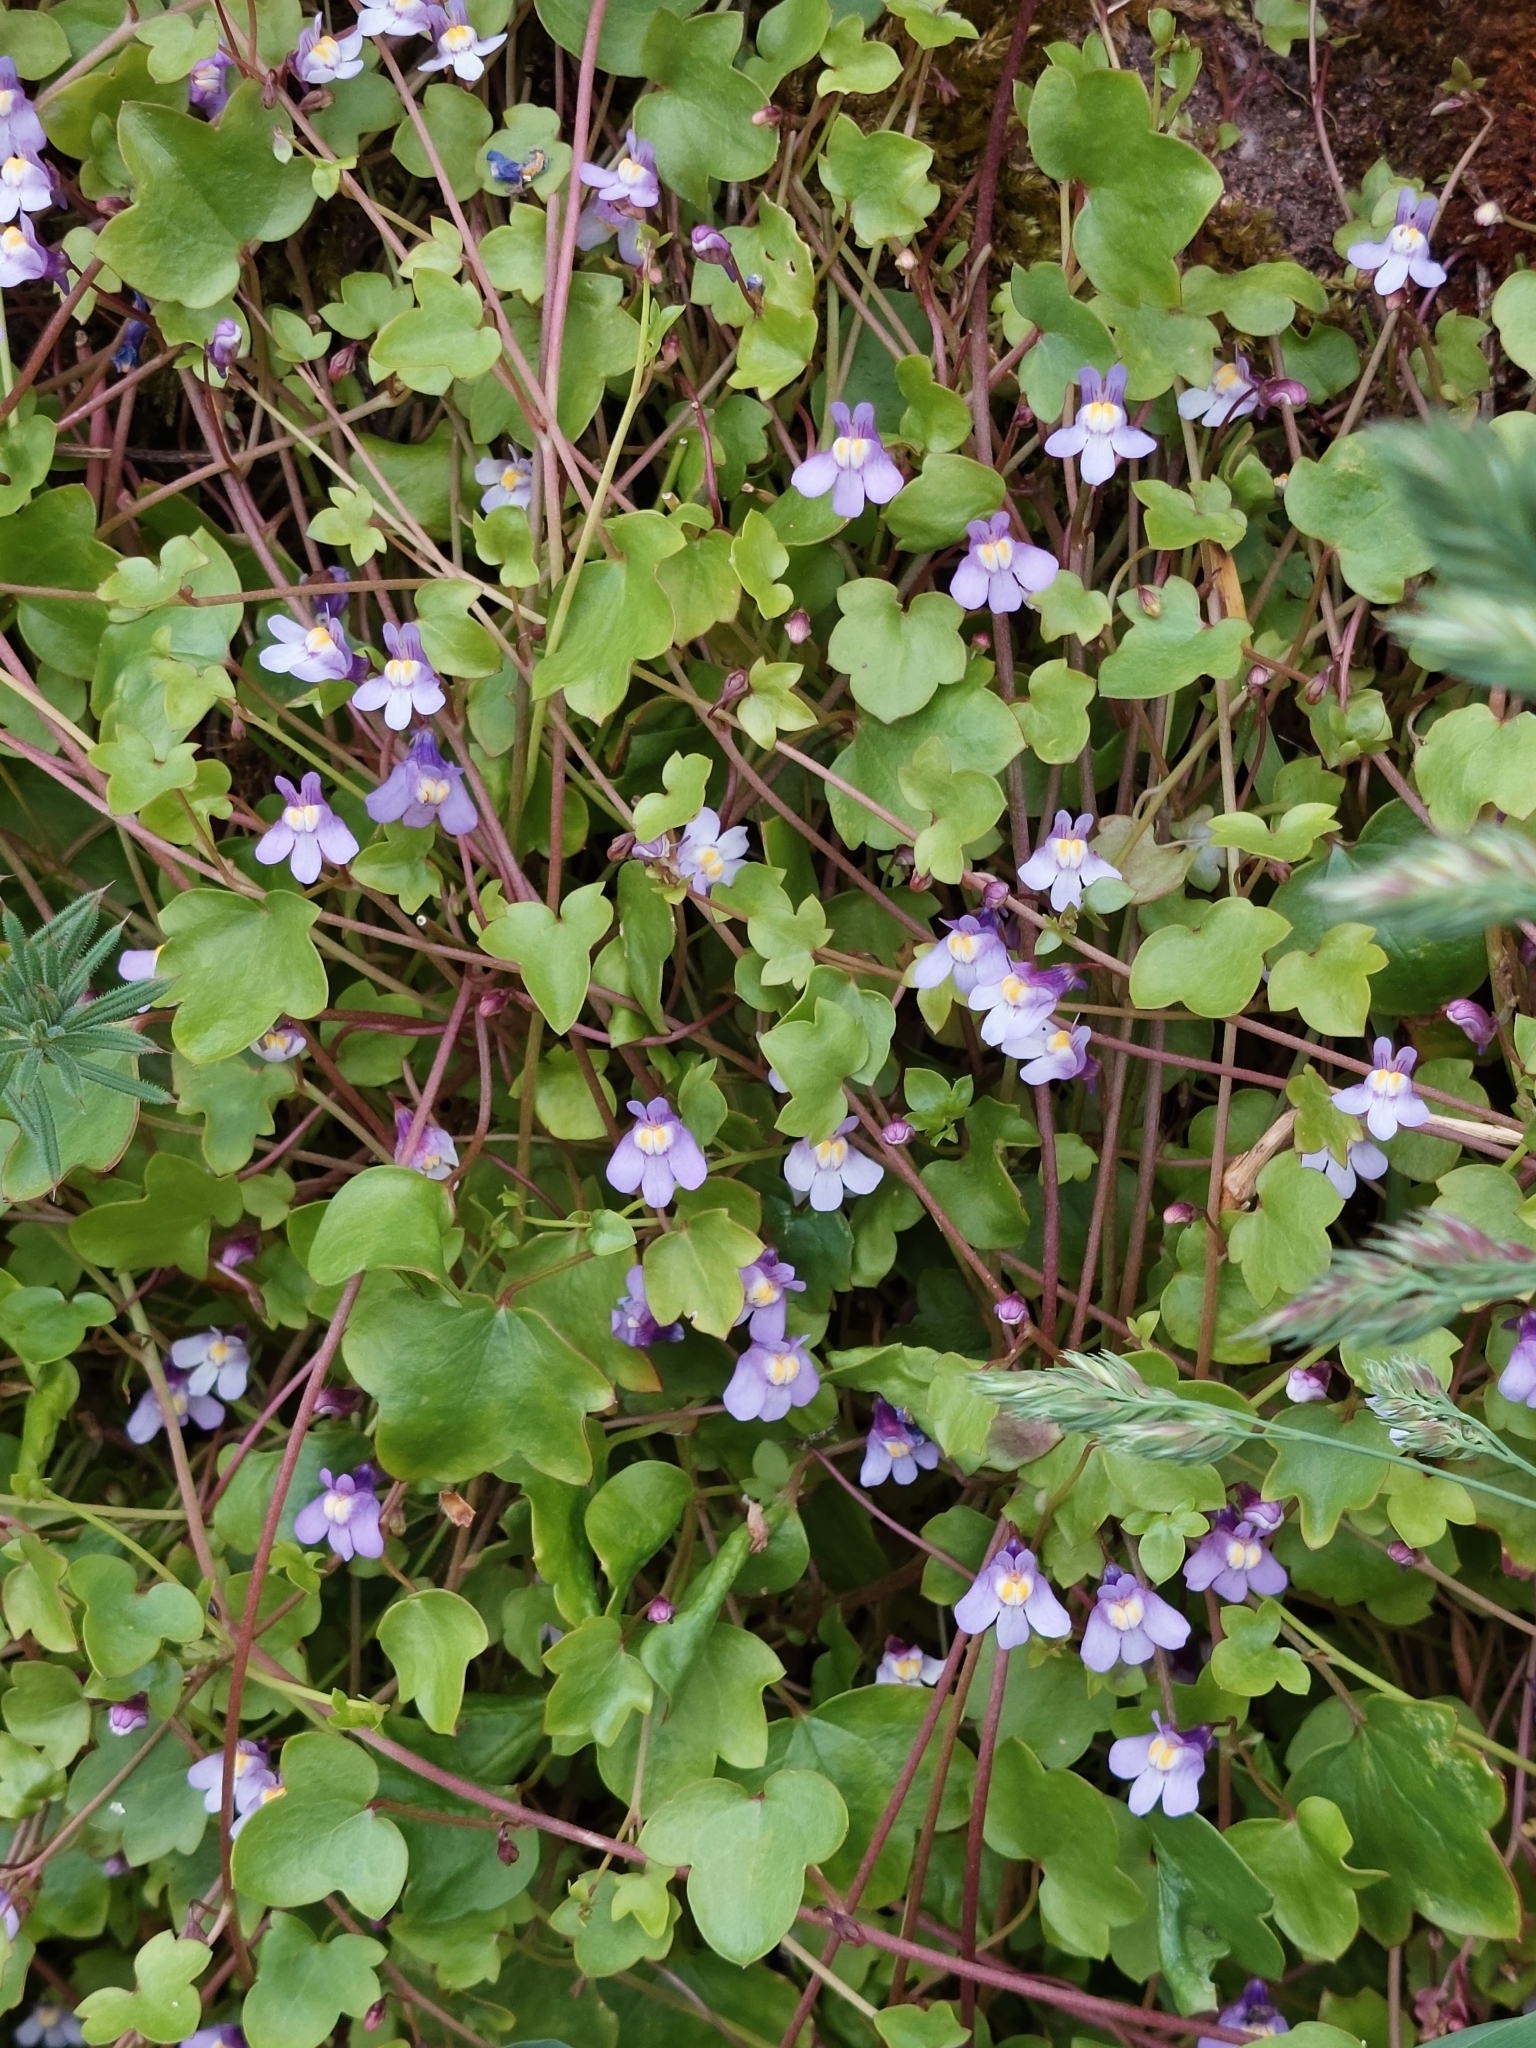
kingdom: Plantae
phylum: Tracheophyta
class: Magnoliopsida
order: Lamiales
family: Plantaginaceae
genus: Cymbalaria
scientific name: Cymbalaria muralis
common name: Ivy-leaved toadflax
